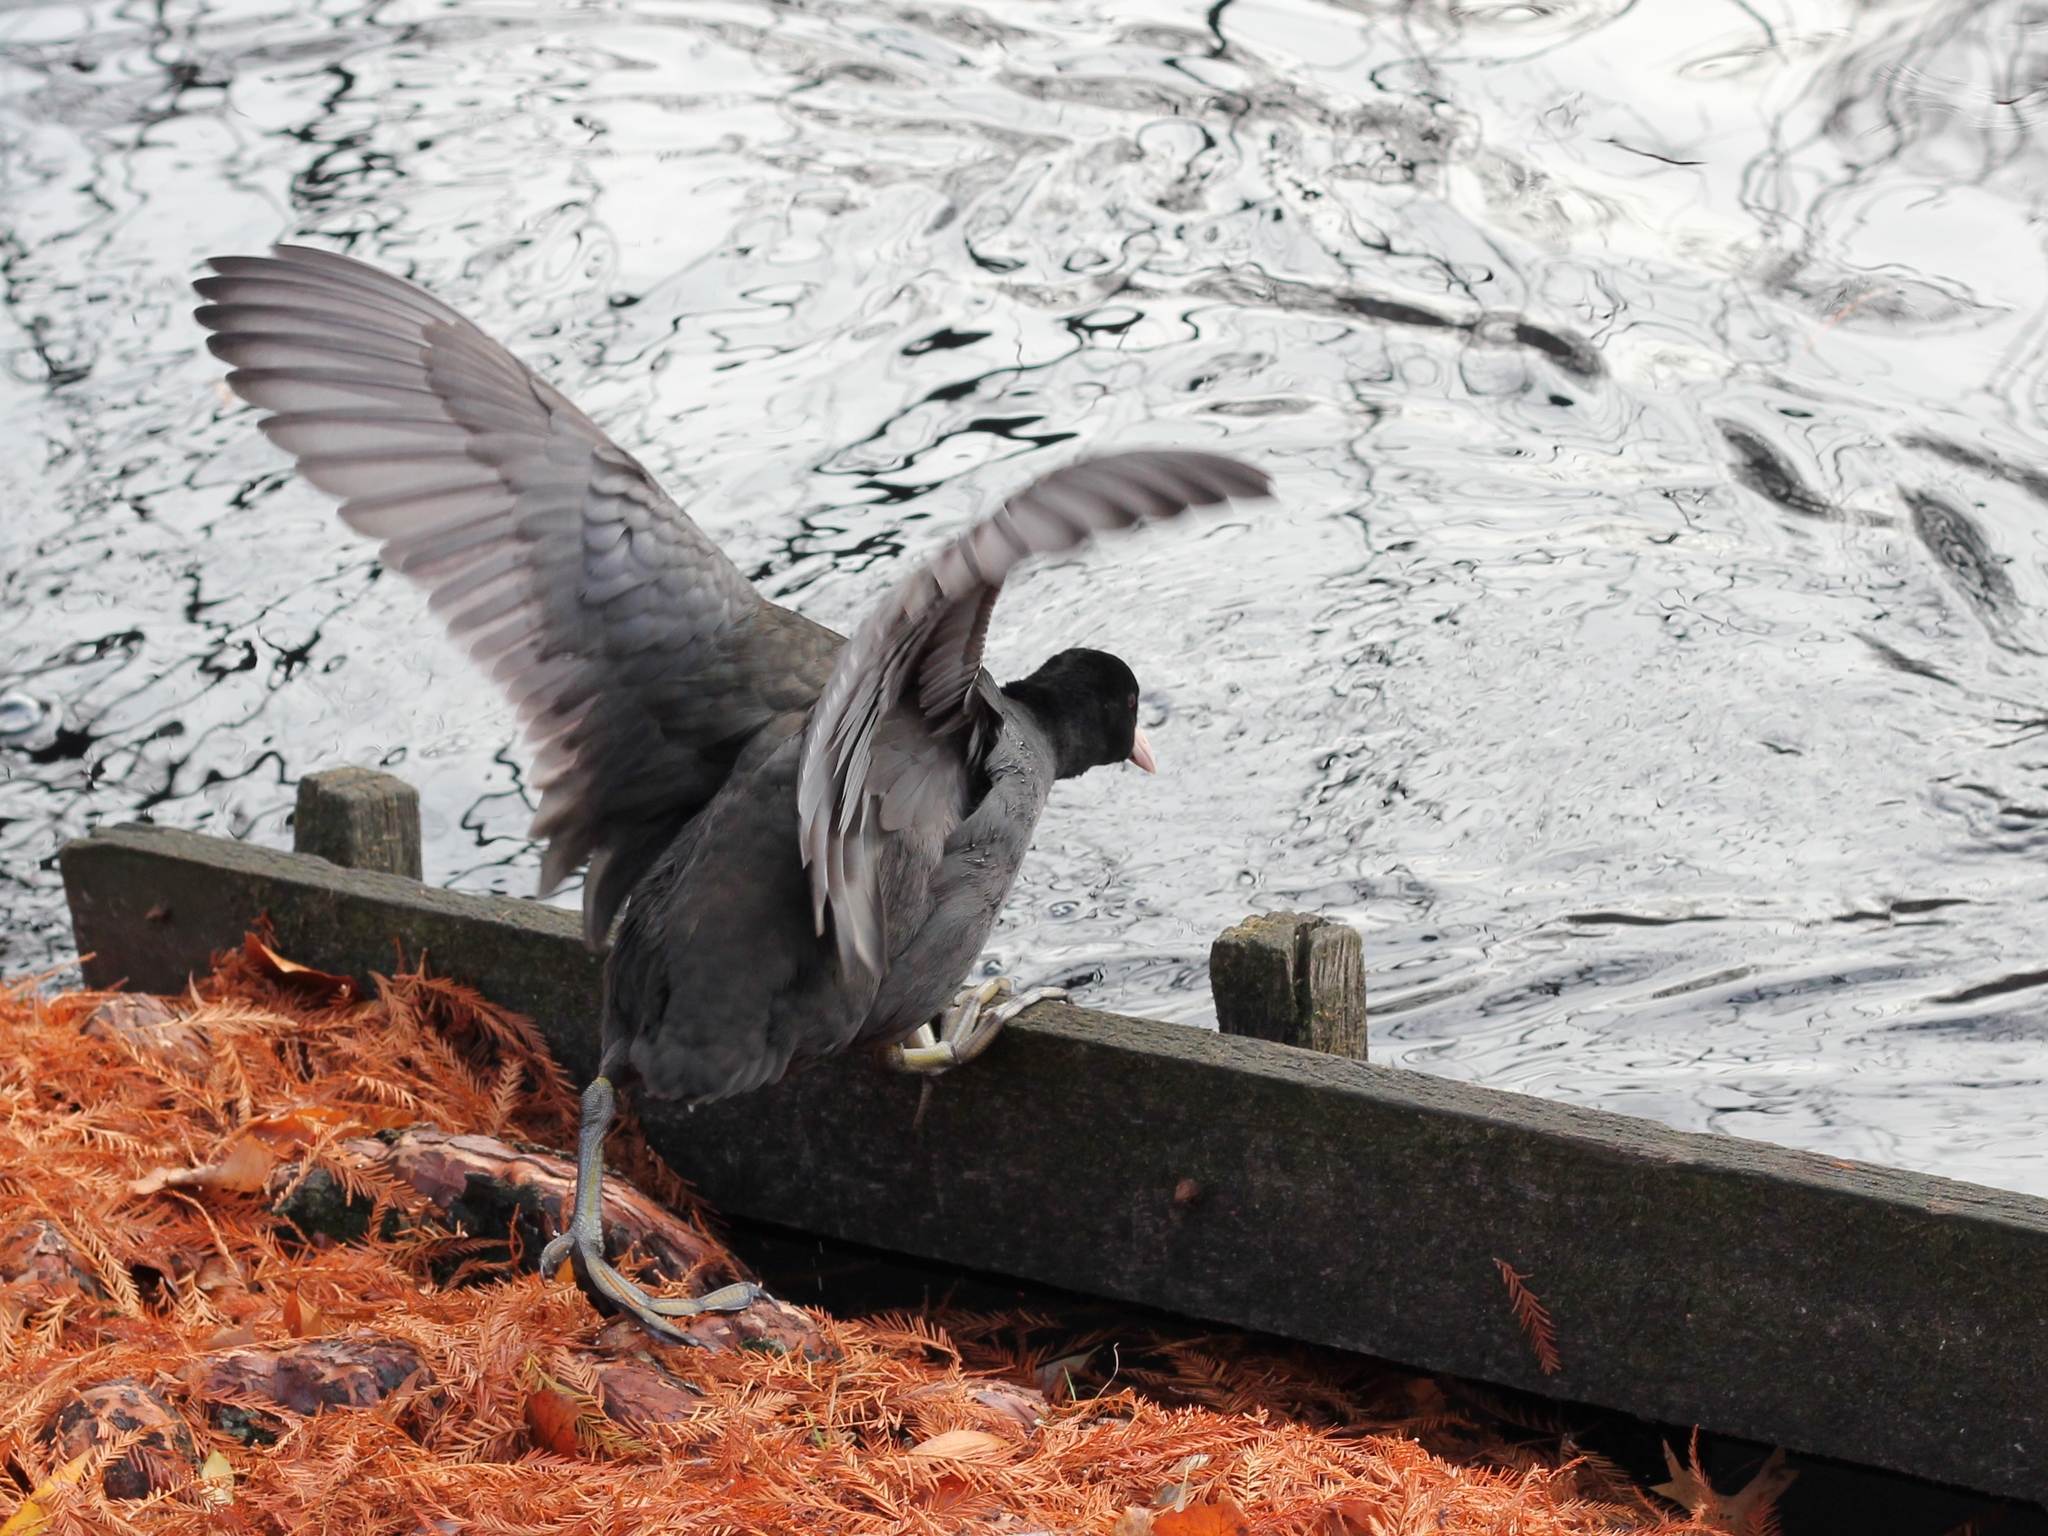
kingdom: Animalia
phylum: Chordata
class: Aves
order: Gruiformes
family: Rallidae
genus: Fulica
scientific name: Fulica atra
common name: Eurasian coot
